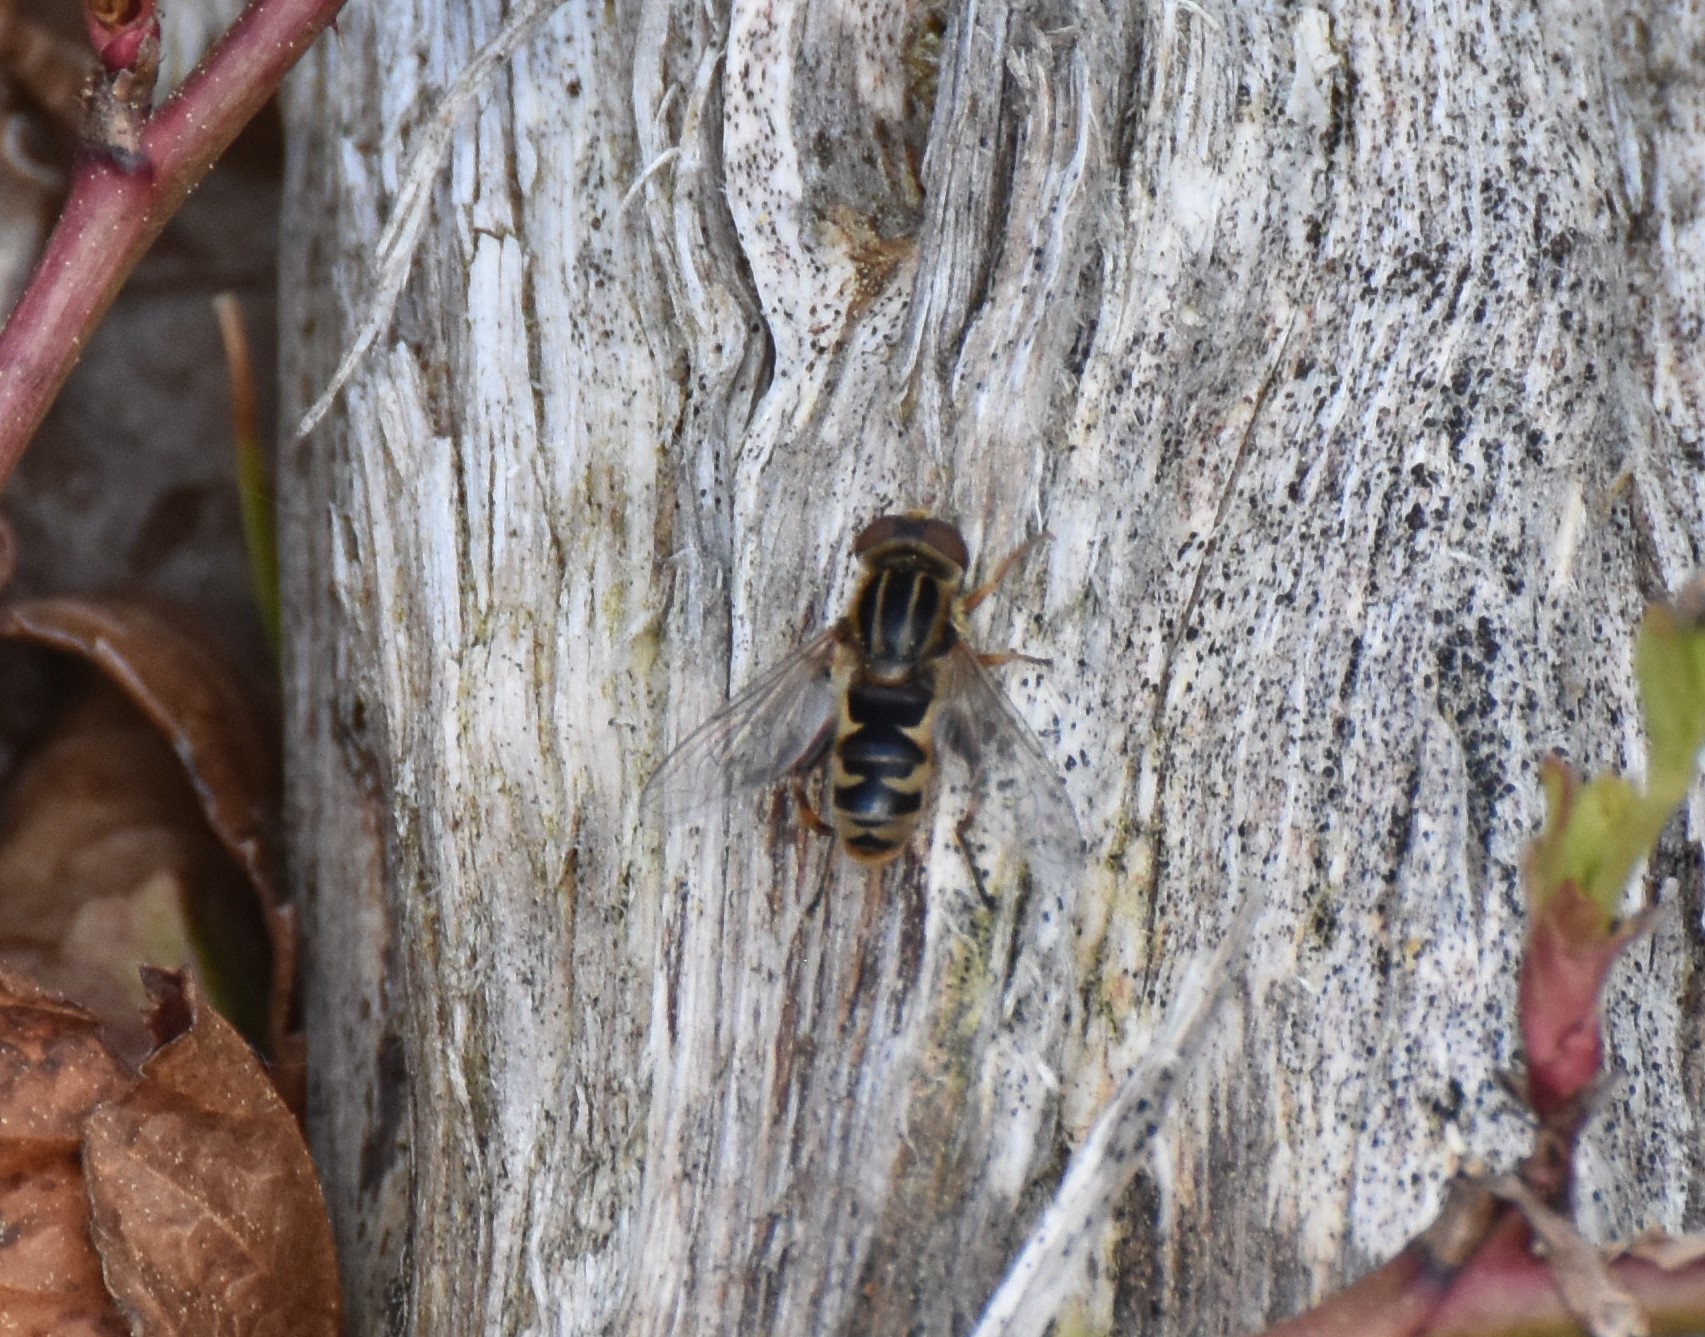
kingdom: Animalia
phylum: Arthropoda
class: Insecta
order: Diptera
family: Syrphidae
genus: Anasimyia
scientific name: Anasimyia
